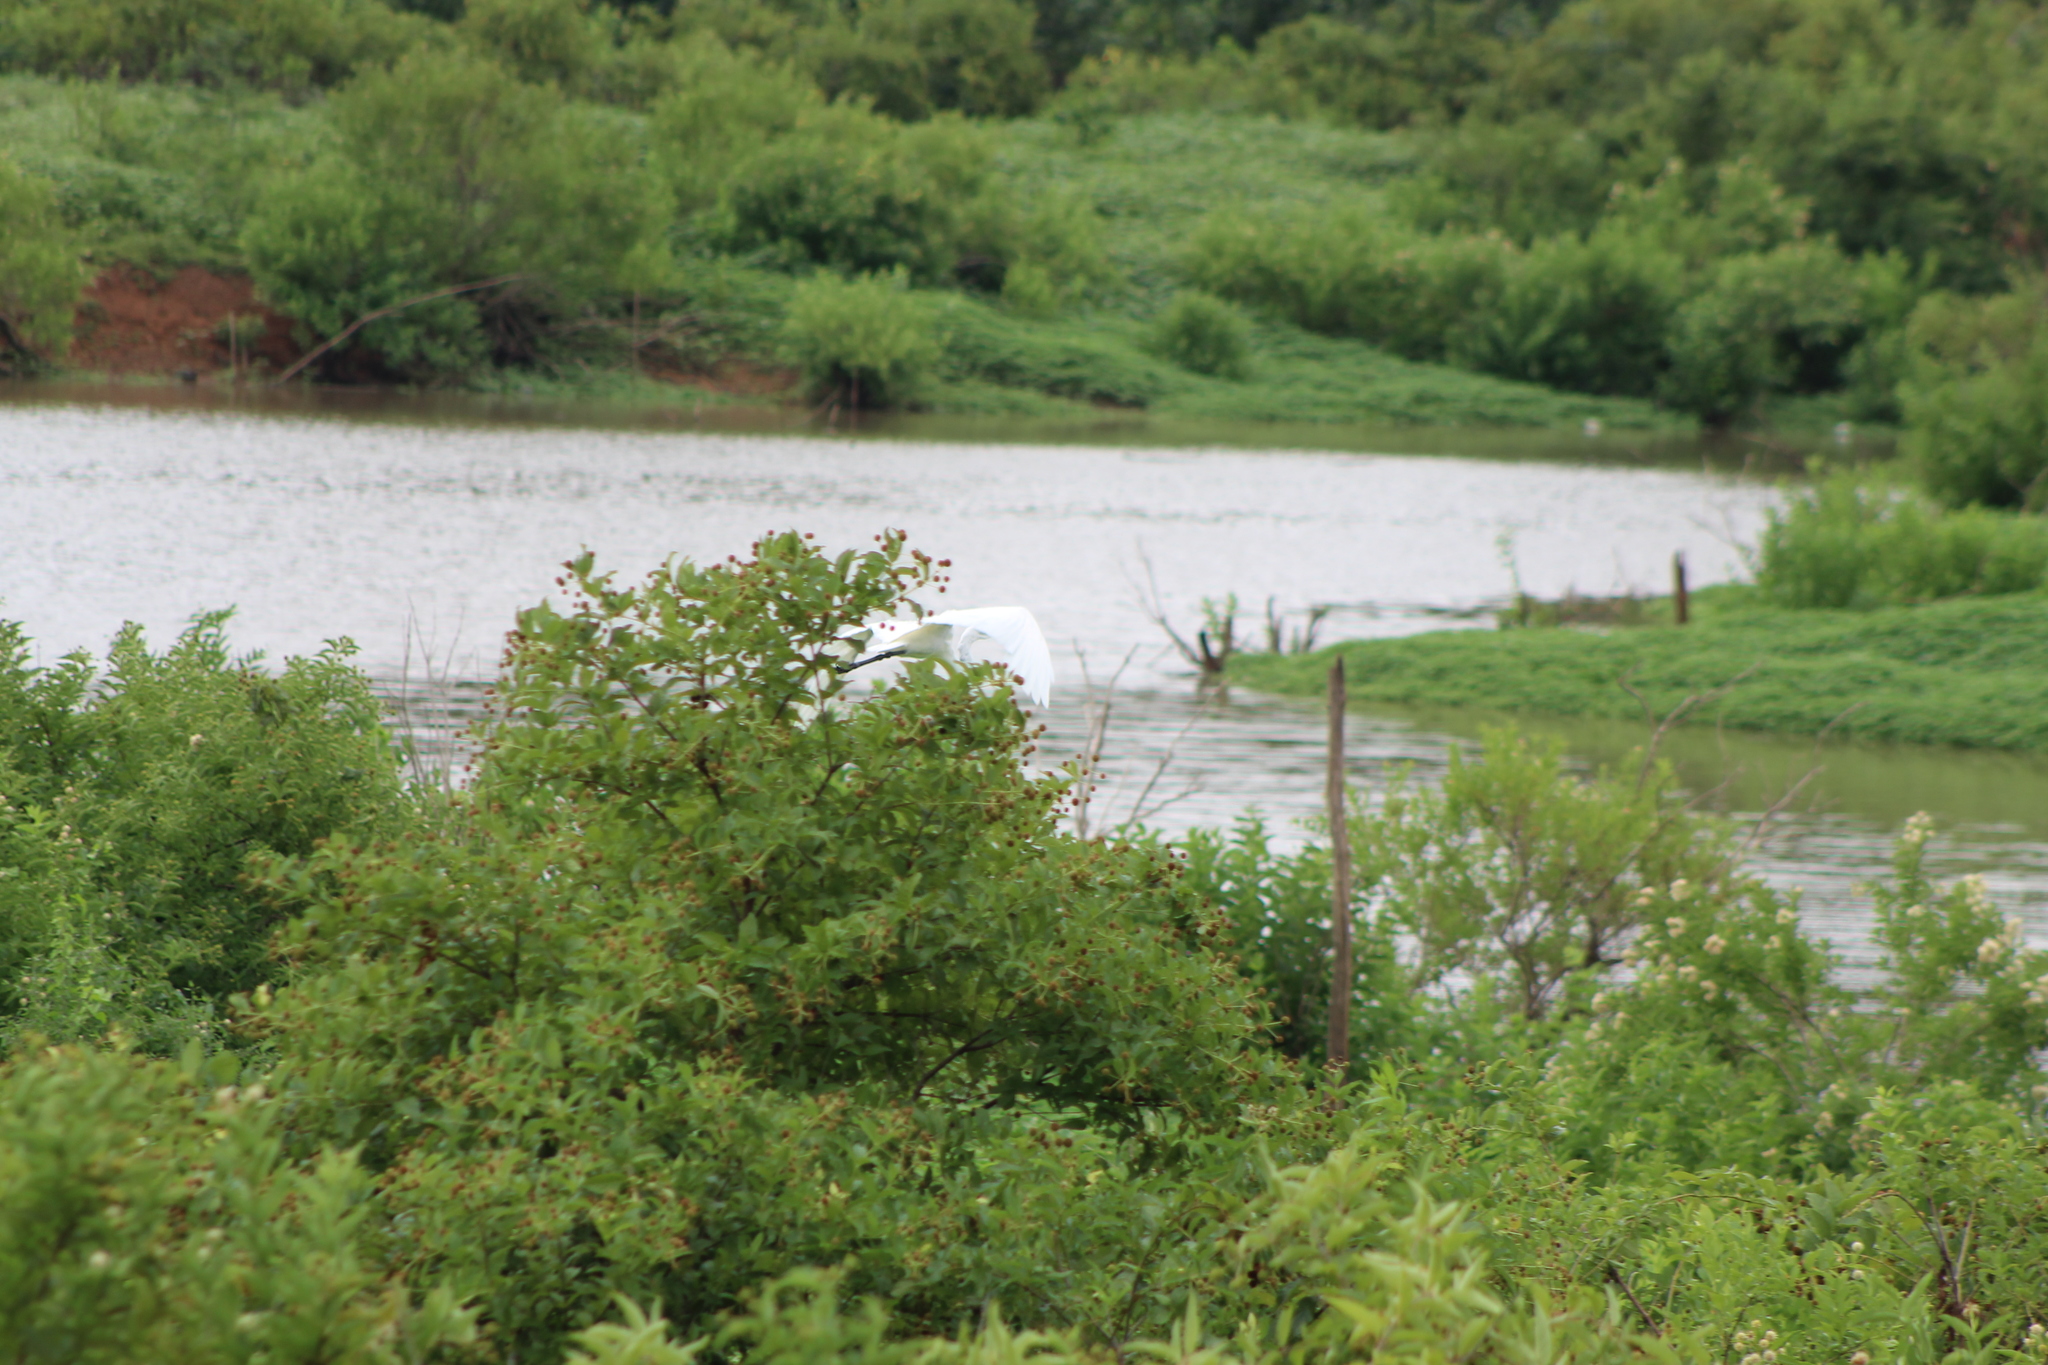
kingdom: Animalia
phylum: Chordata
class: Aves
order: Pelecaniformes
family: Ardeidae
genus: Ardea
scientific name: Ardea alba
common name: Great egret
